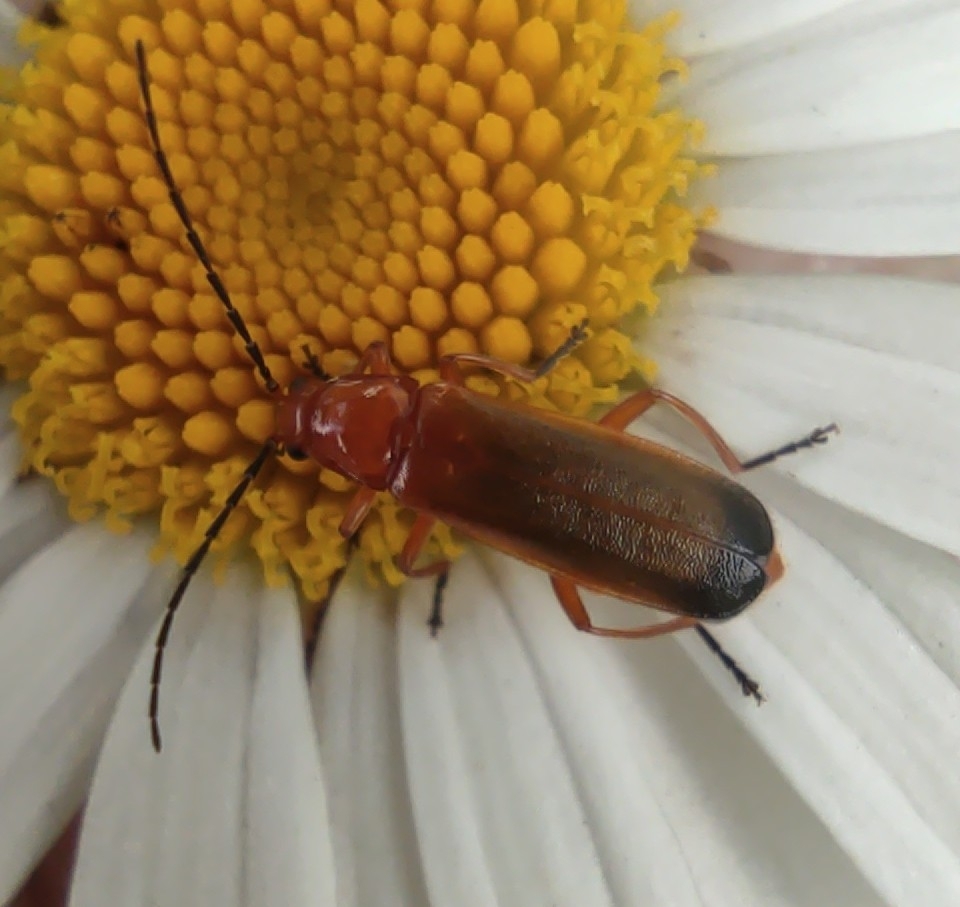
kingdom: Animalia
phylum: Arthropoda
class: Insecta
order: Coleoptera
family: Cantharidae
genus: Rhagonycha
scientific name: Rhagonycha fulva
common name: Common red soldier beetle
